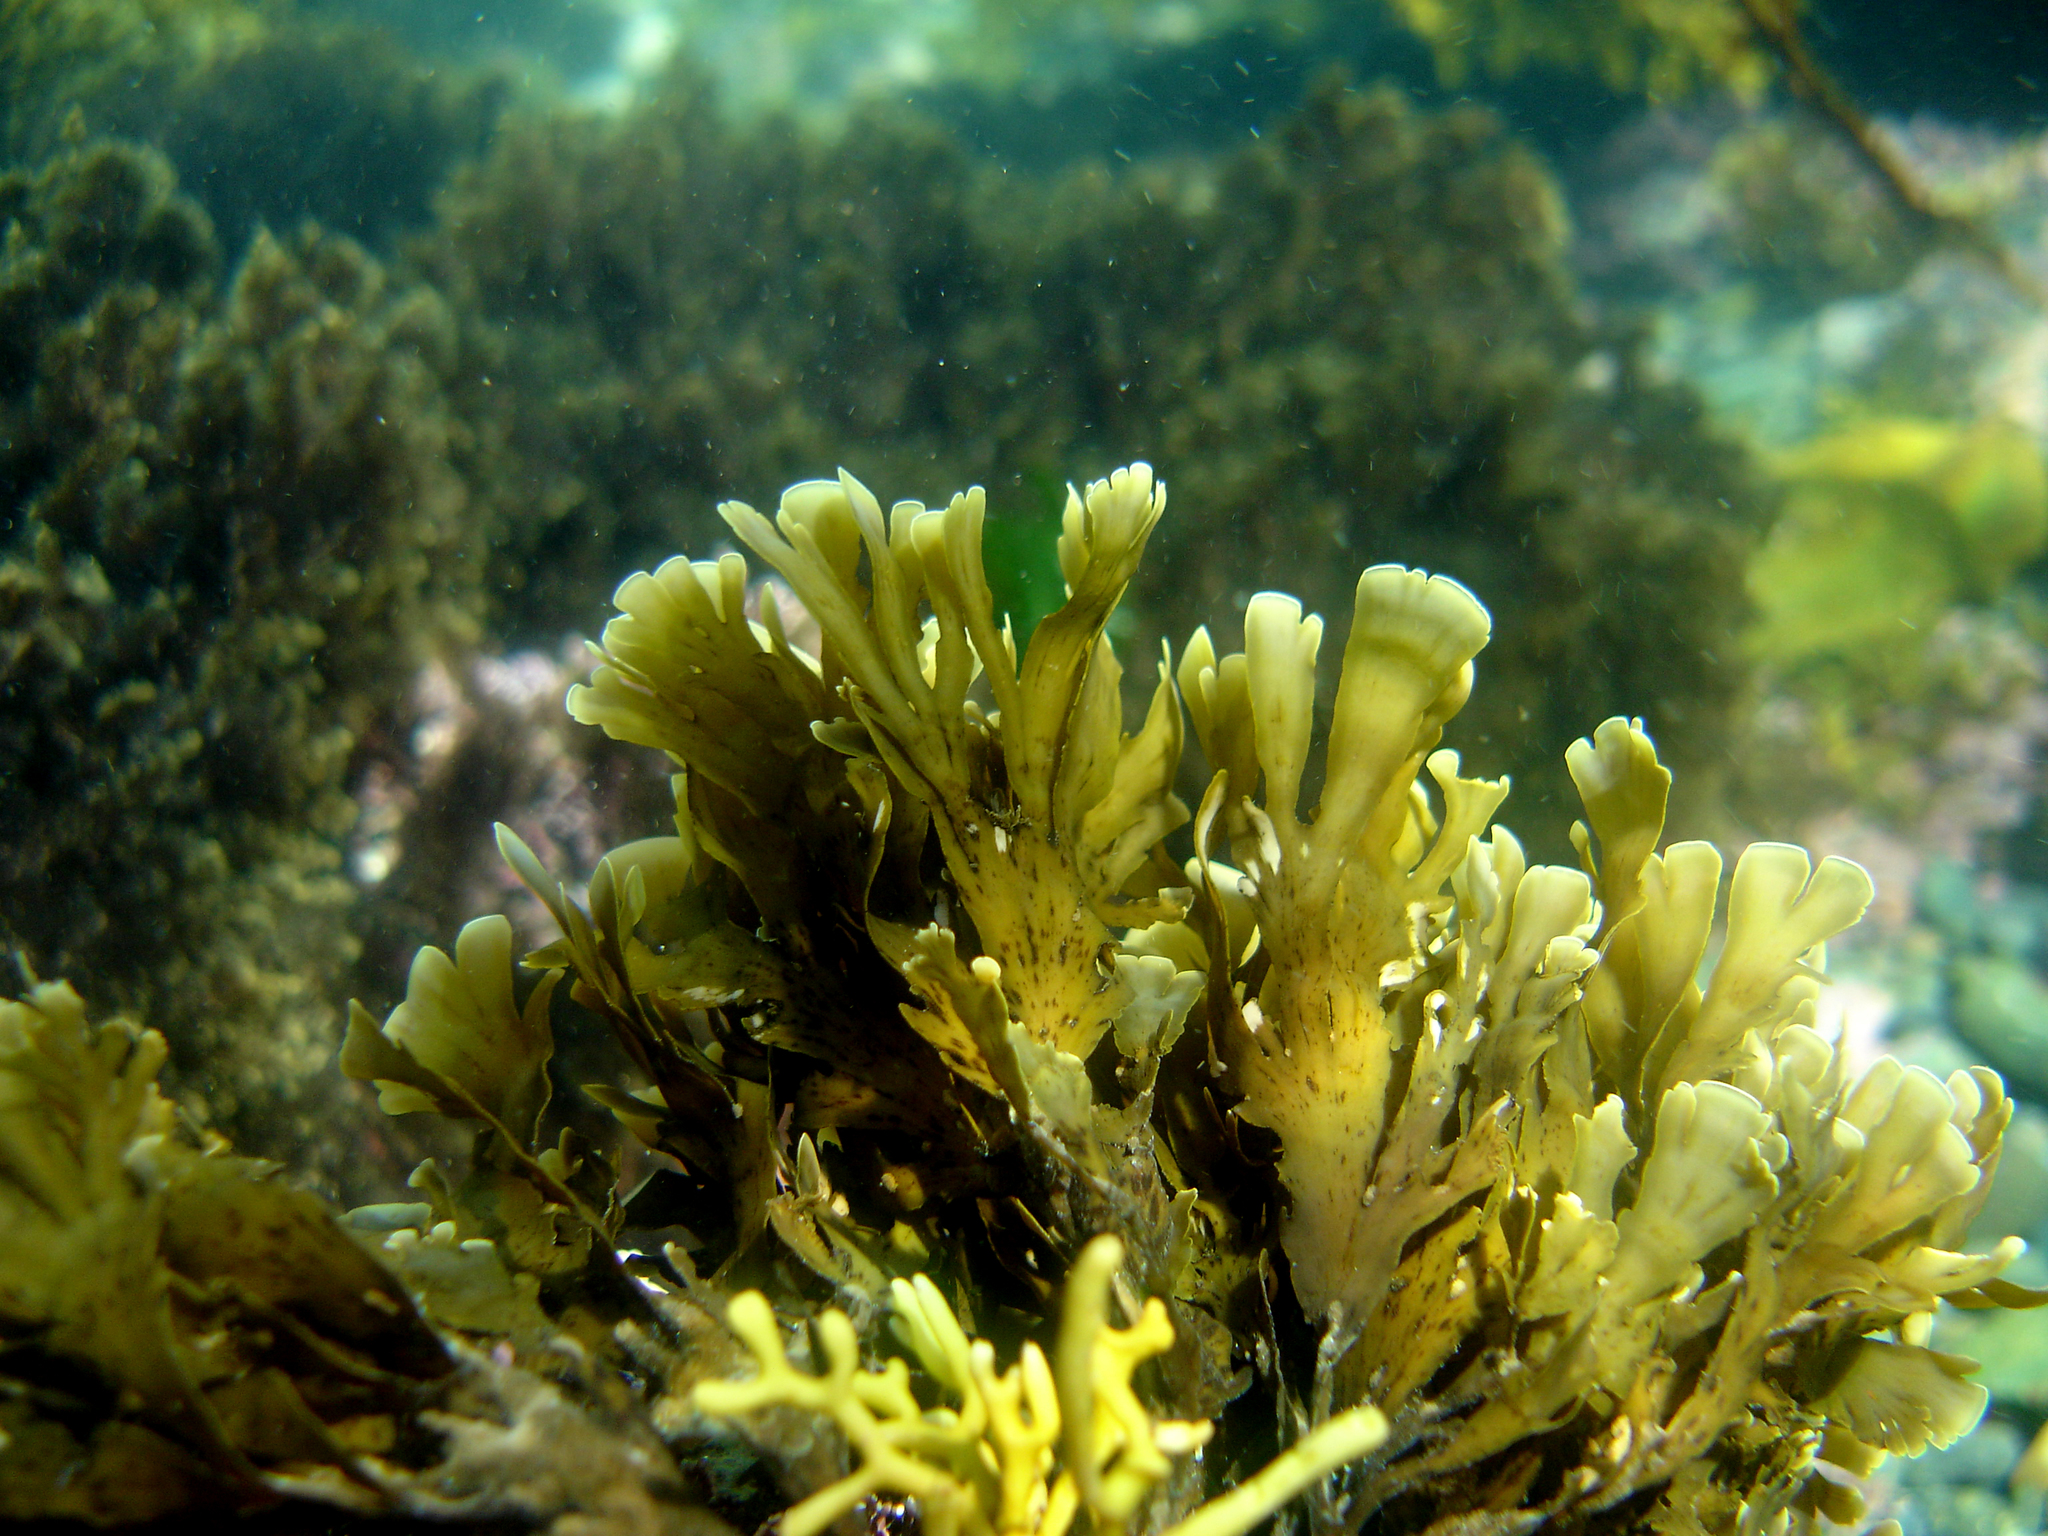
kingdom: Chromista
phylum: Ochrophyta
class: Phaeophyceae
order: Dictyotales
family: Dictyotaceae
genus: Zonaria
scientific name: Zonaria aureomarginata
